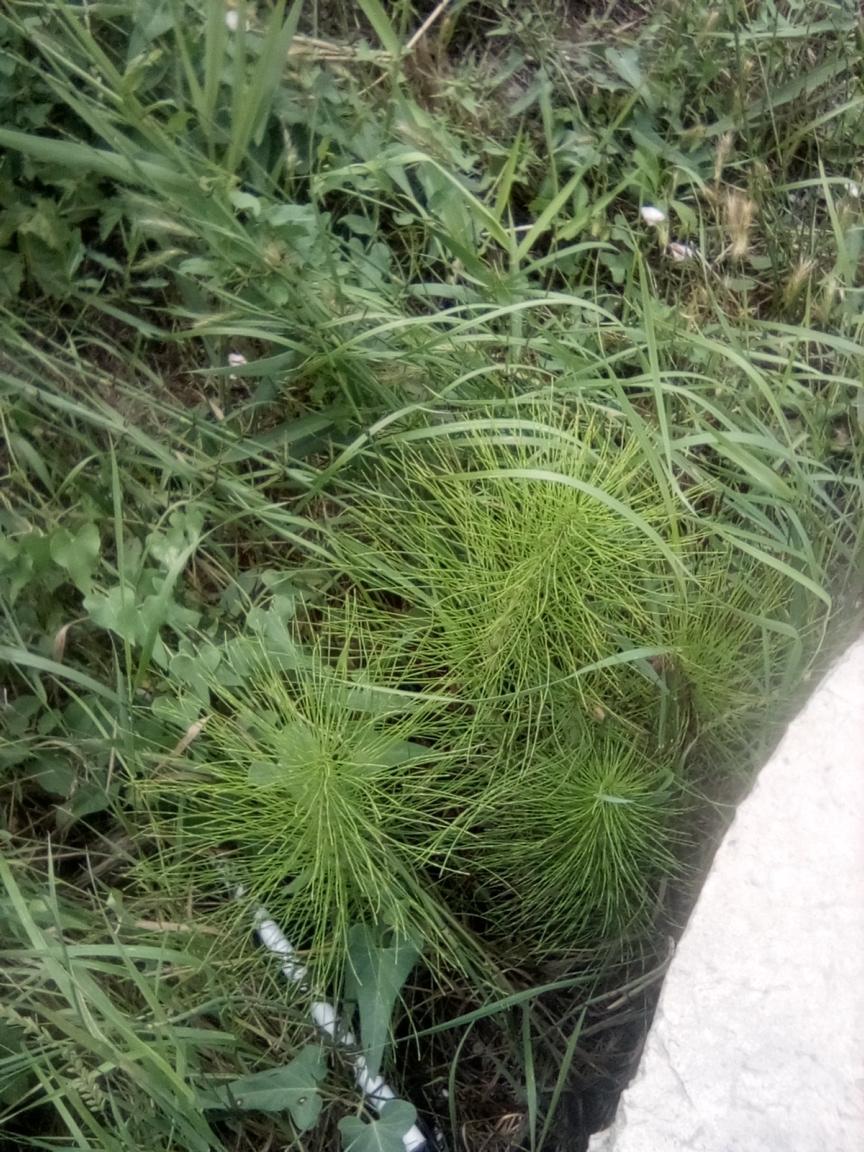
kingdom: Plantae
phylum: Tracheophyta
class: Polypodiopsida
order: Equisetales
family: Equisetaceae
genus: Equisetum
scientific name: Equisetum telmateia
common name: Great horsetail
